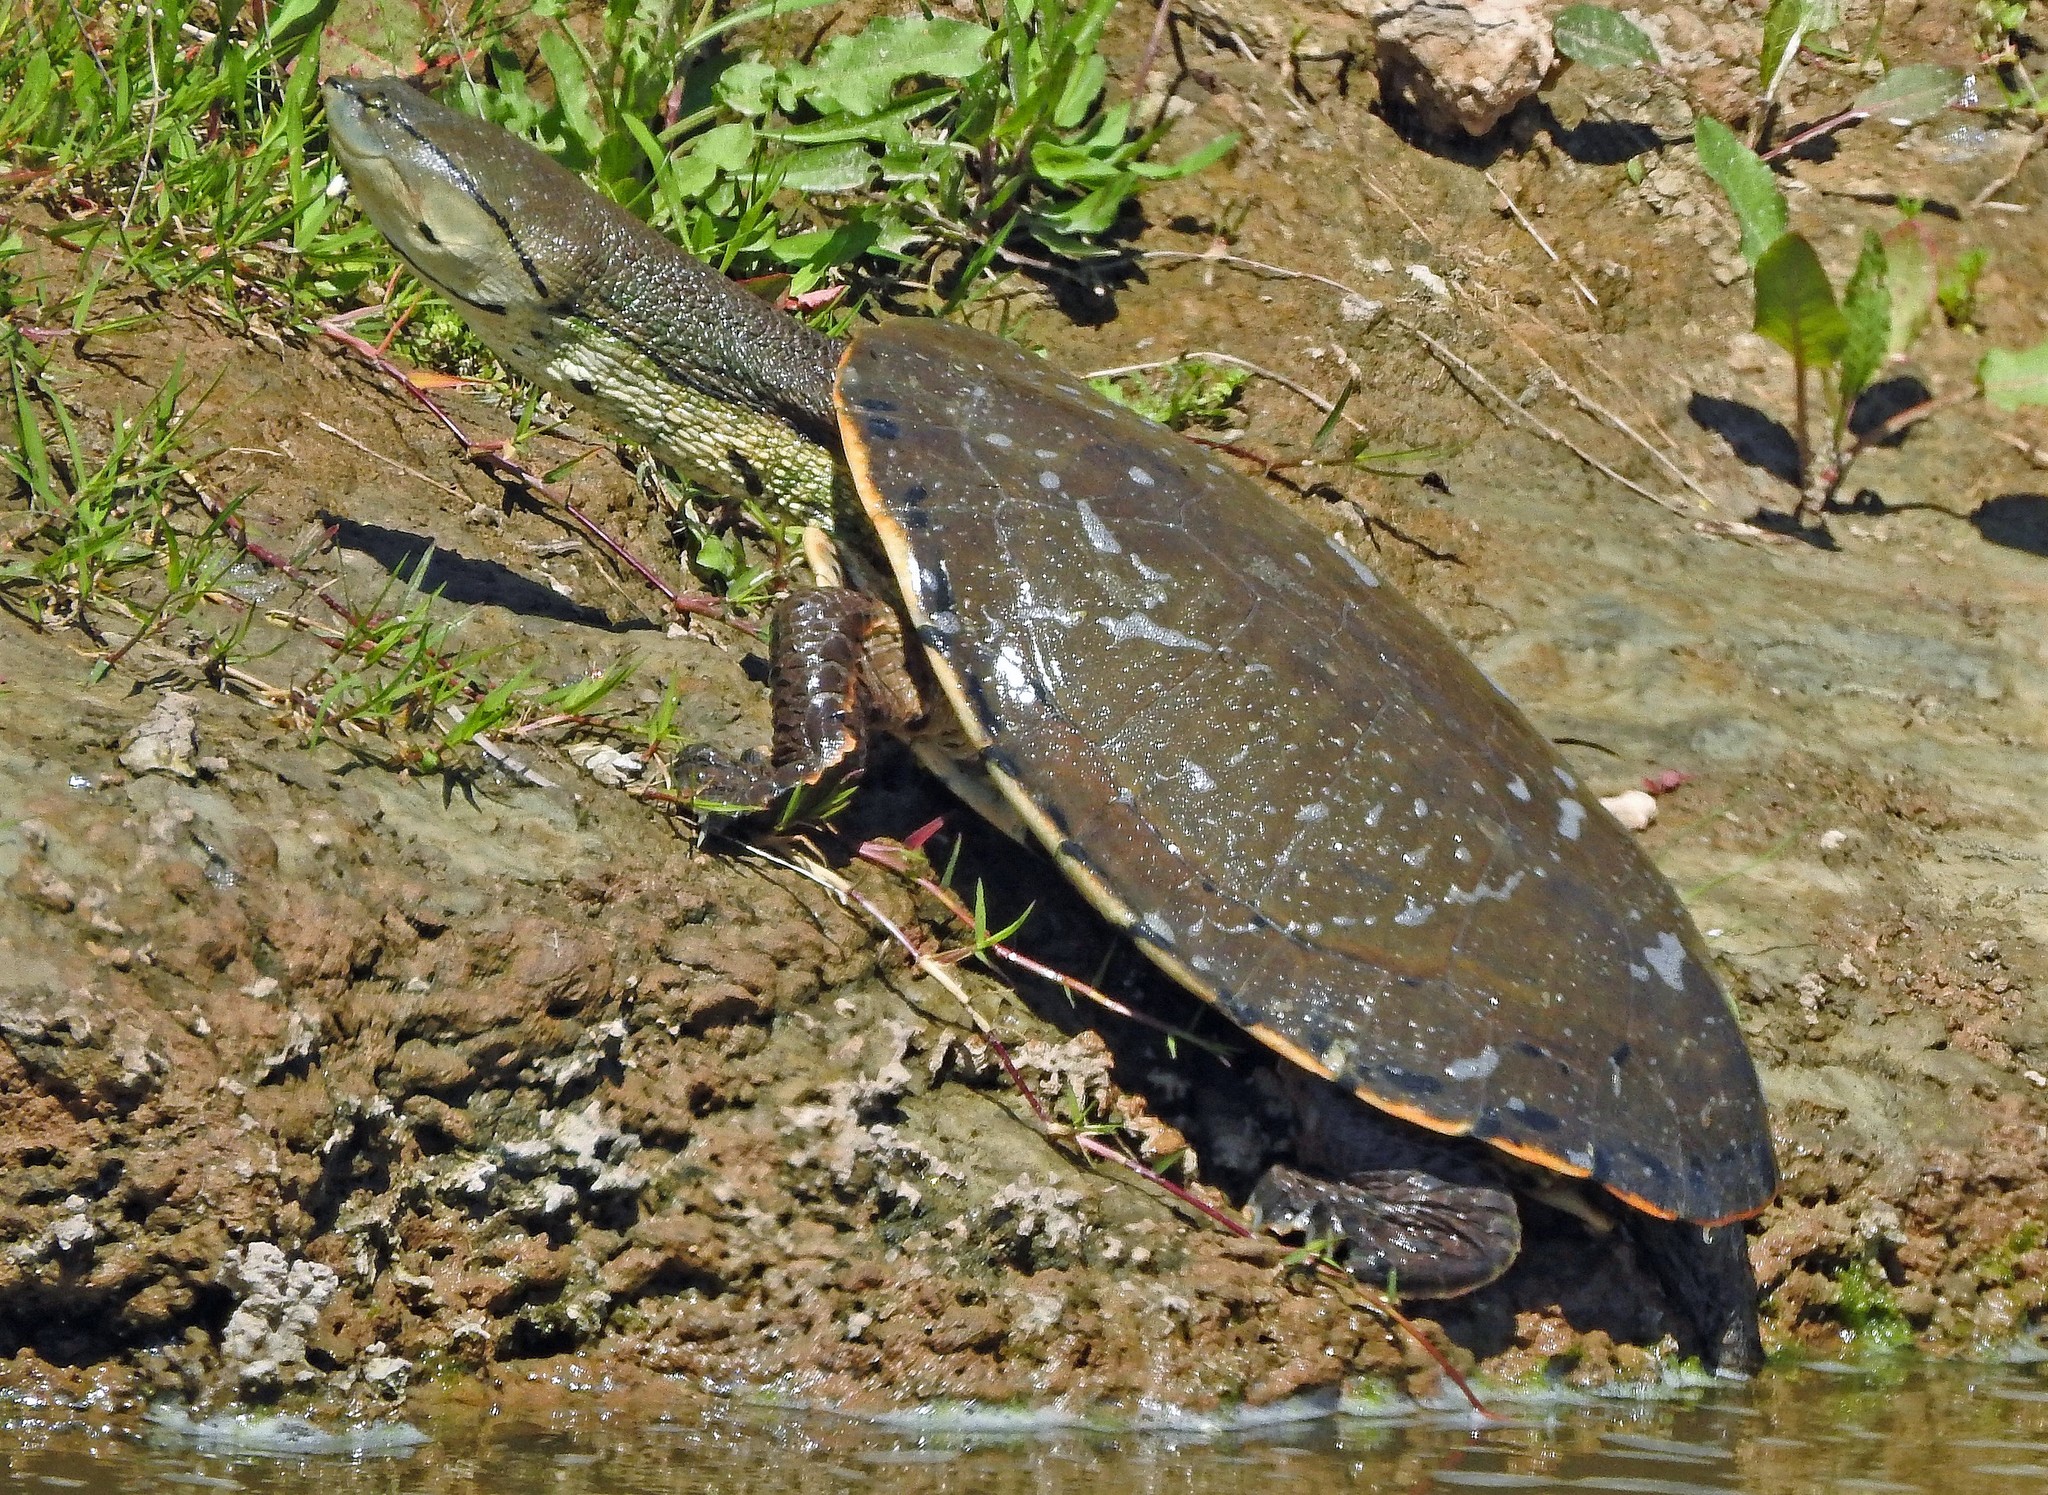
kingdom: Animalia
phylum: Chordata
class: Testudines
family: Chelidae
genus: Phrynops
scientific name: Phrynops hilarii
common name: Side-necked turtle of saint hillaire
